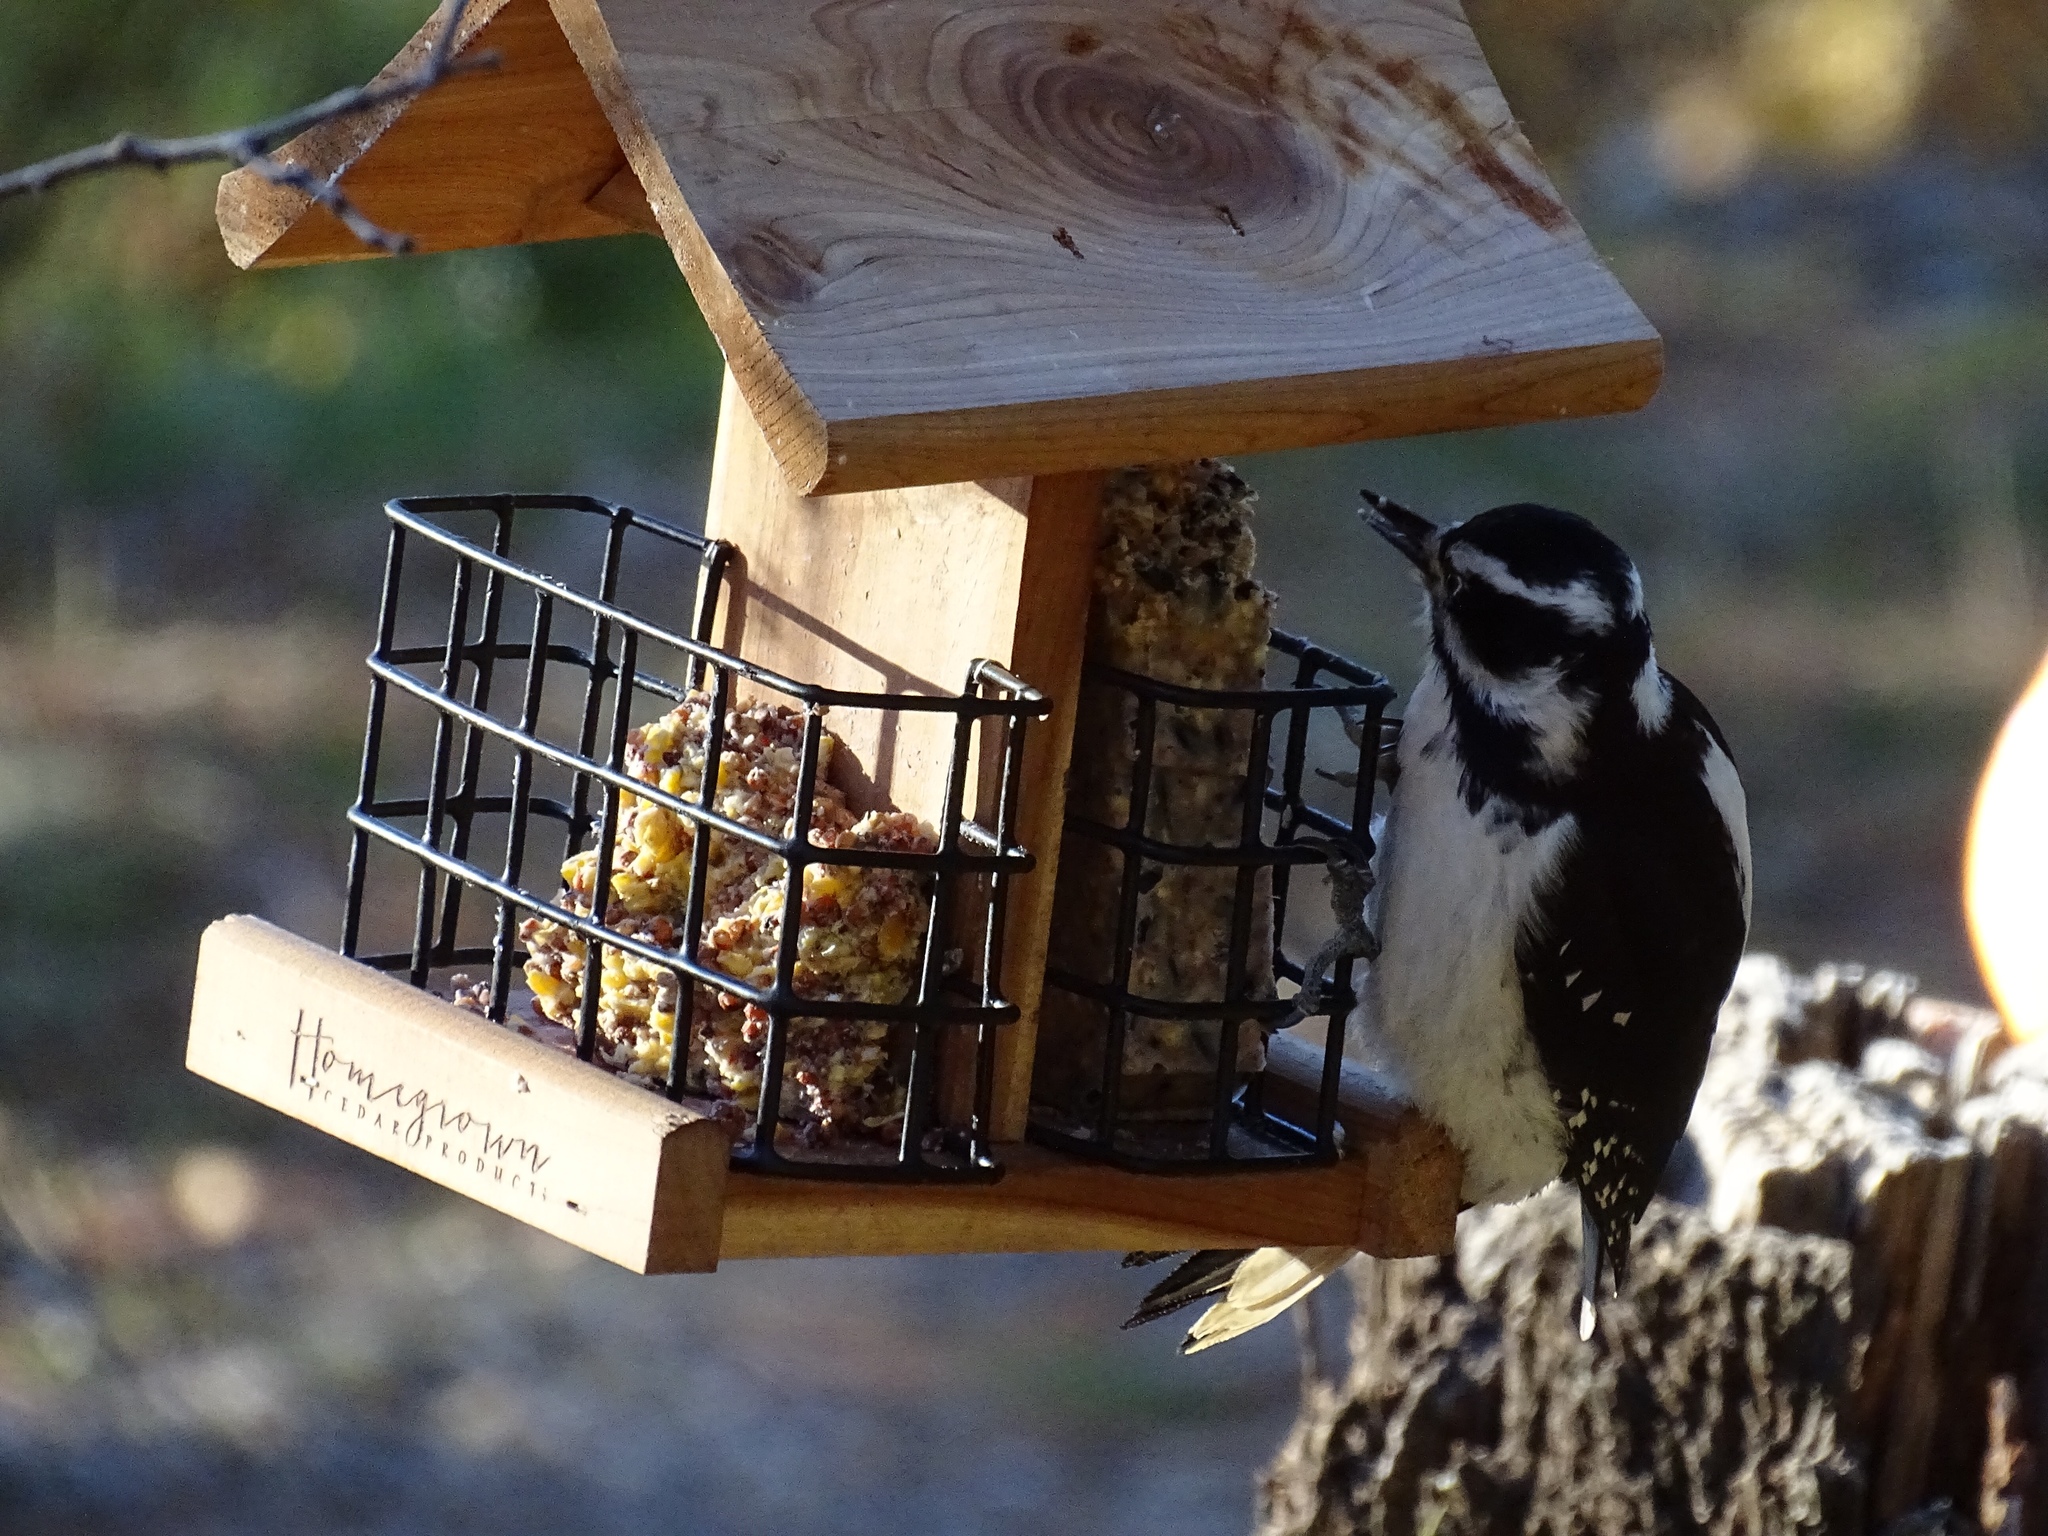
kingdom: Animalia
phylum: Chordata
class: Aves
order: Piciformes
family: Picidae
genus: Leuconotopicus
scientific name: Leuconotopicus villosus
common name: Hairy woodpecker
